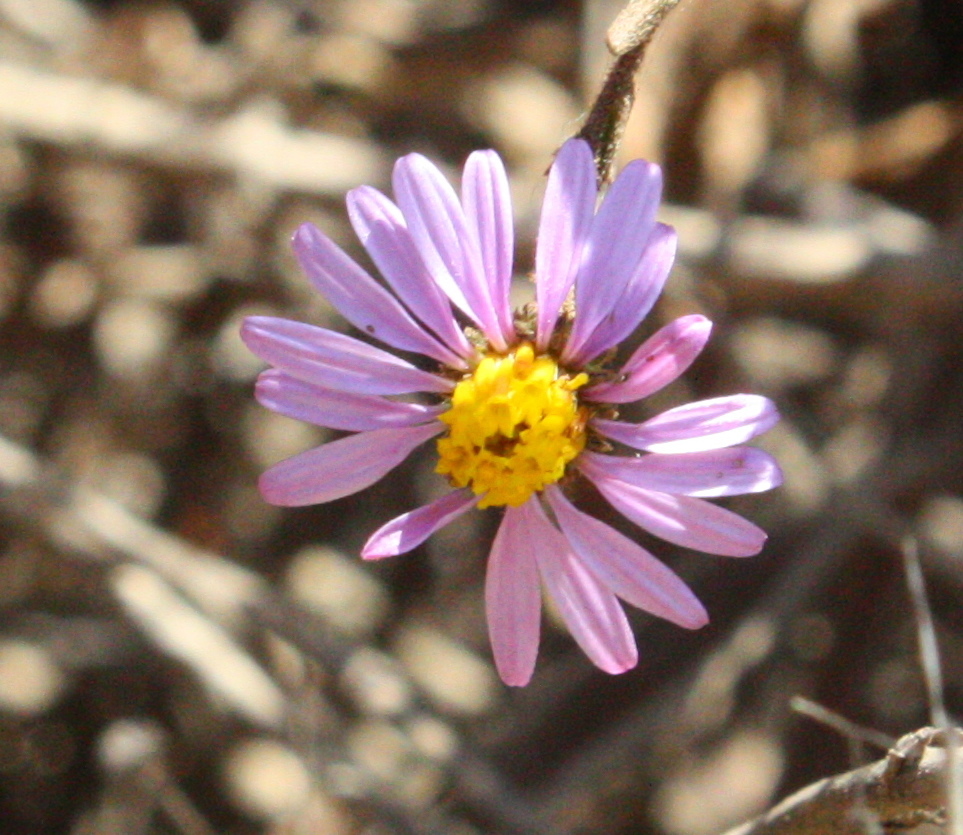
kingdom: Plantae
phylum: Tracheophyta
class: Magnoliopsida
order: Asterales
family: Asteraceae
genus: Corethrogyne
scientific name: Corethrogyne filaginifolia
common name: Sand-aster
